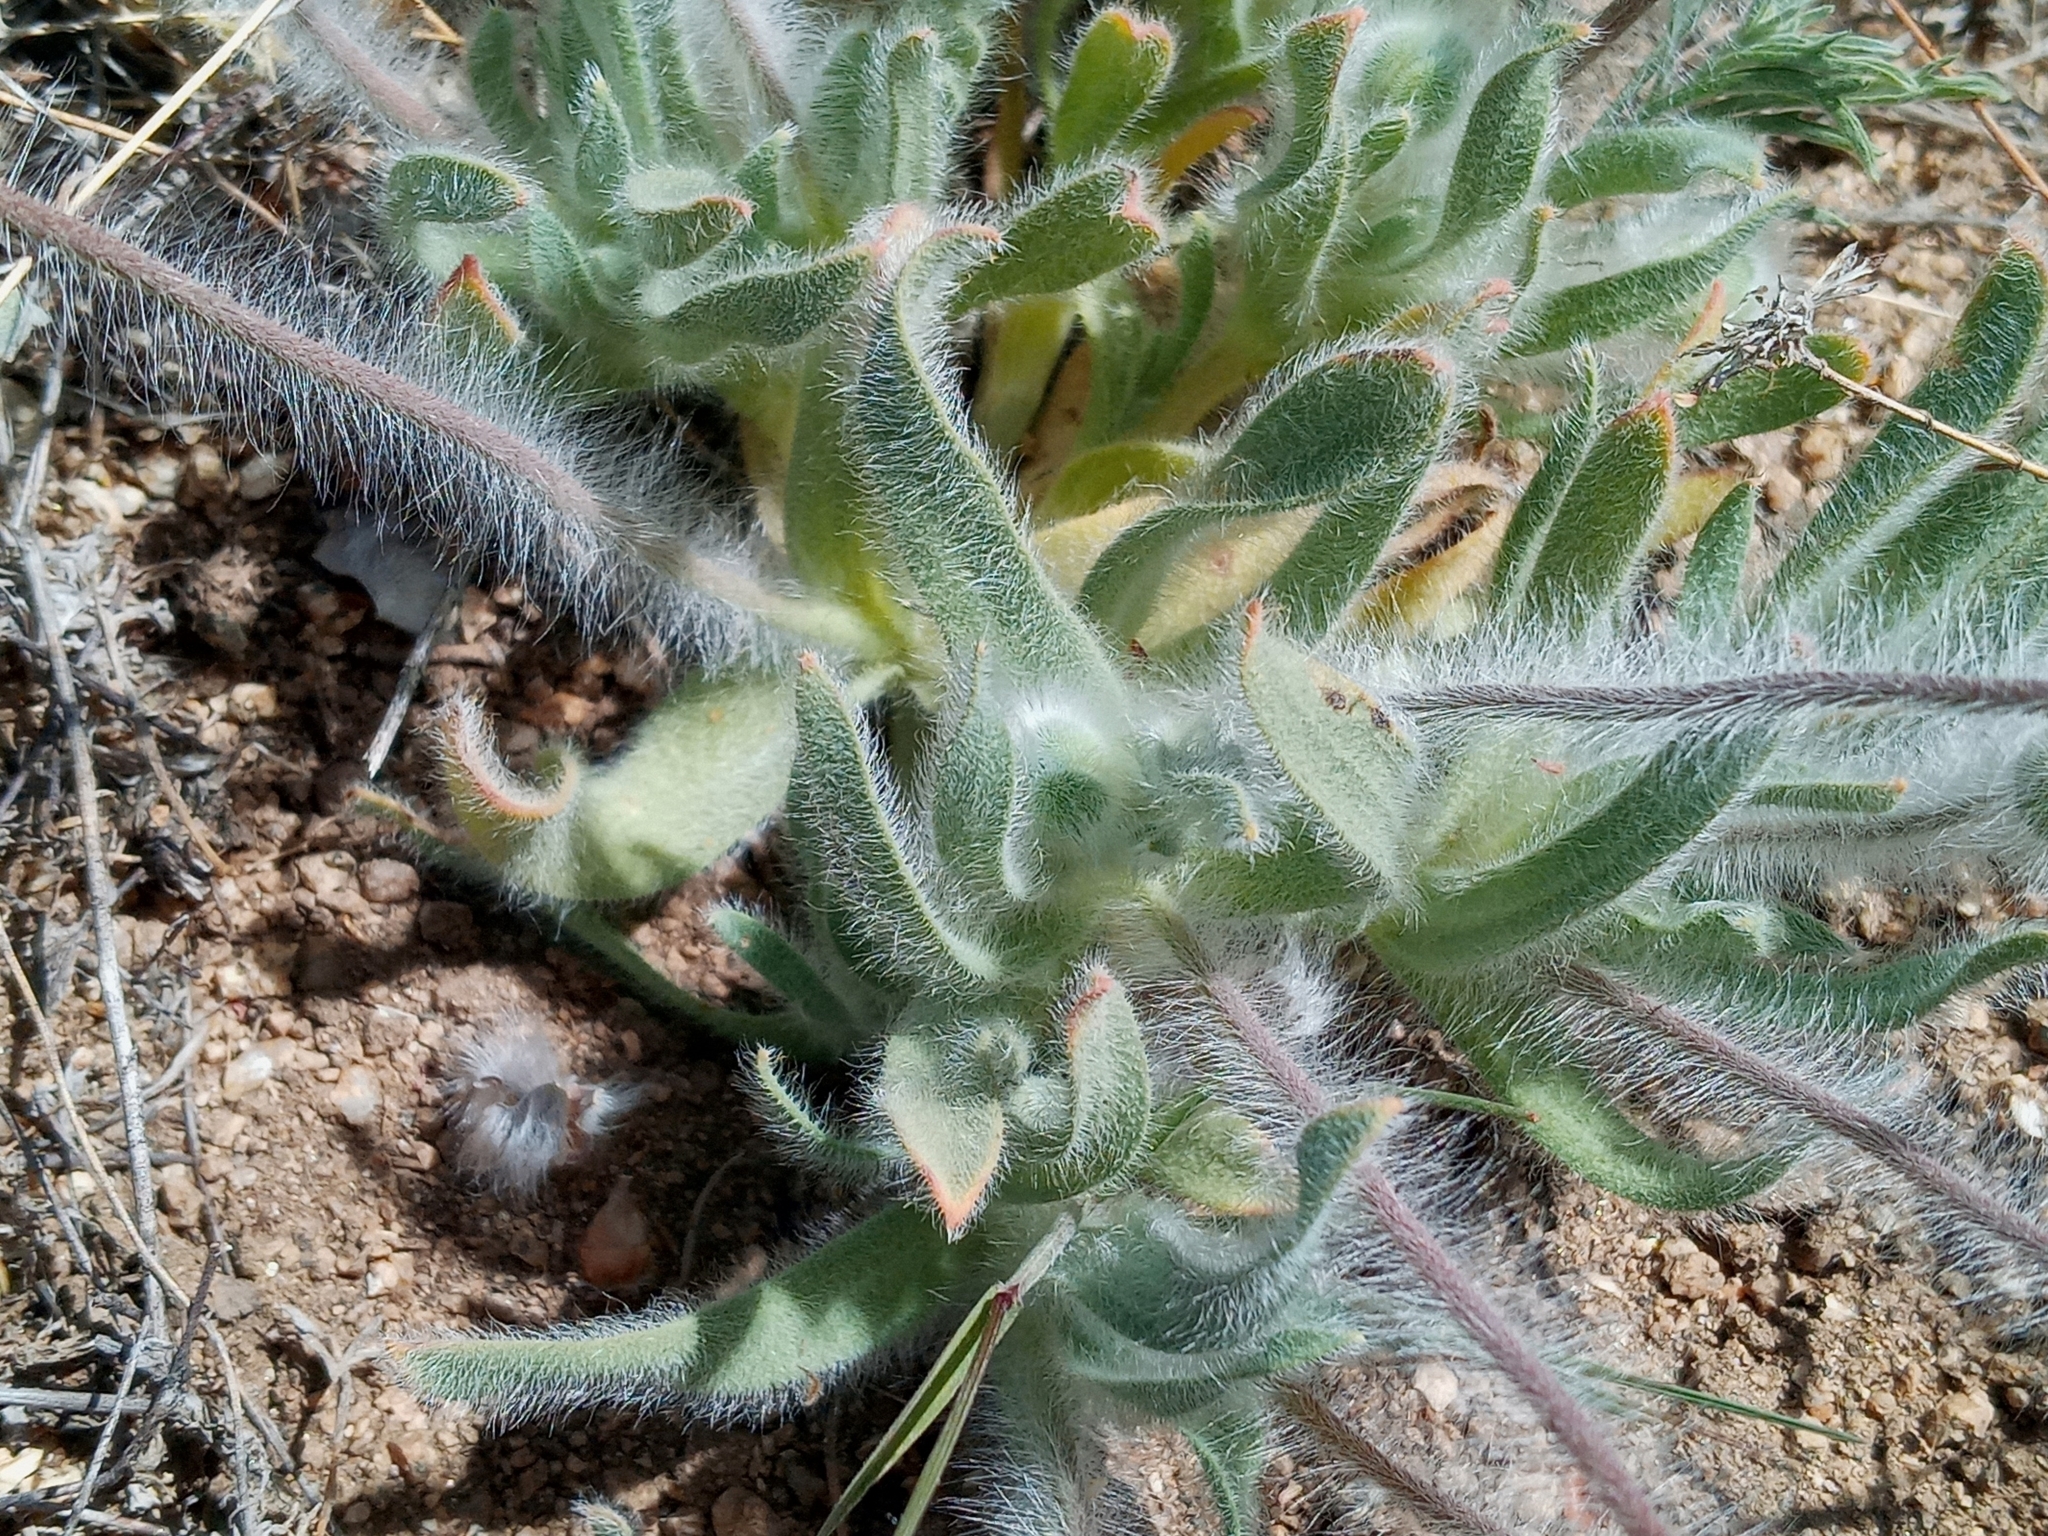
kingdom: Plantae
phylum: Tracheophyta
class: Magnoliopsida
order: Ranunculales
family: Papaveraceae
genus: Platystemon
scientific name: Platystemon californicus
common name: Cream-cups
